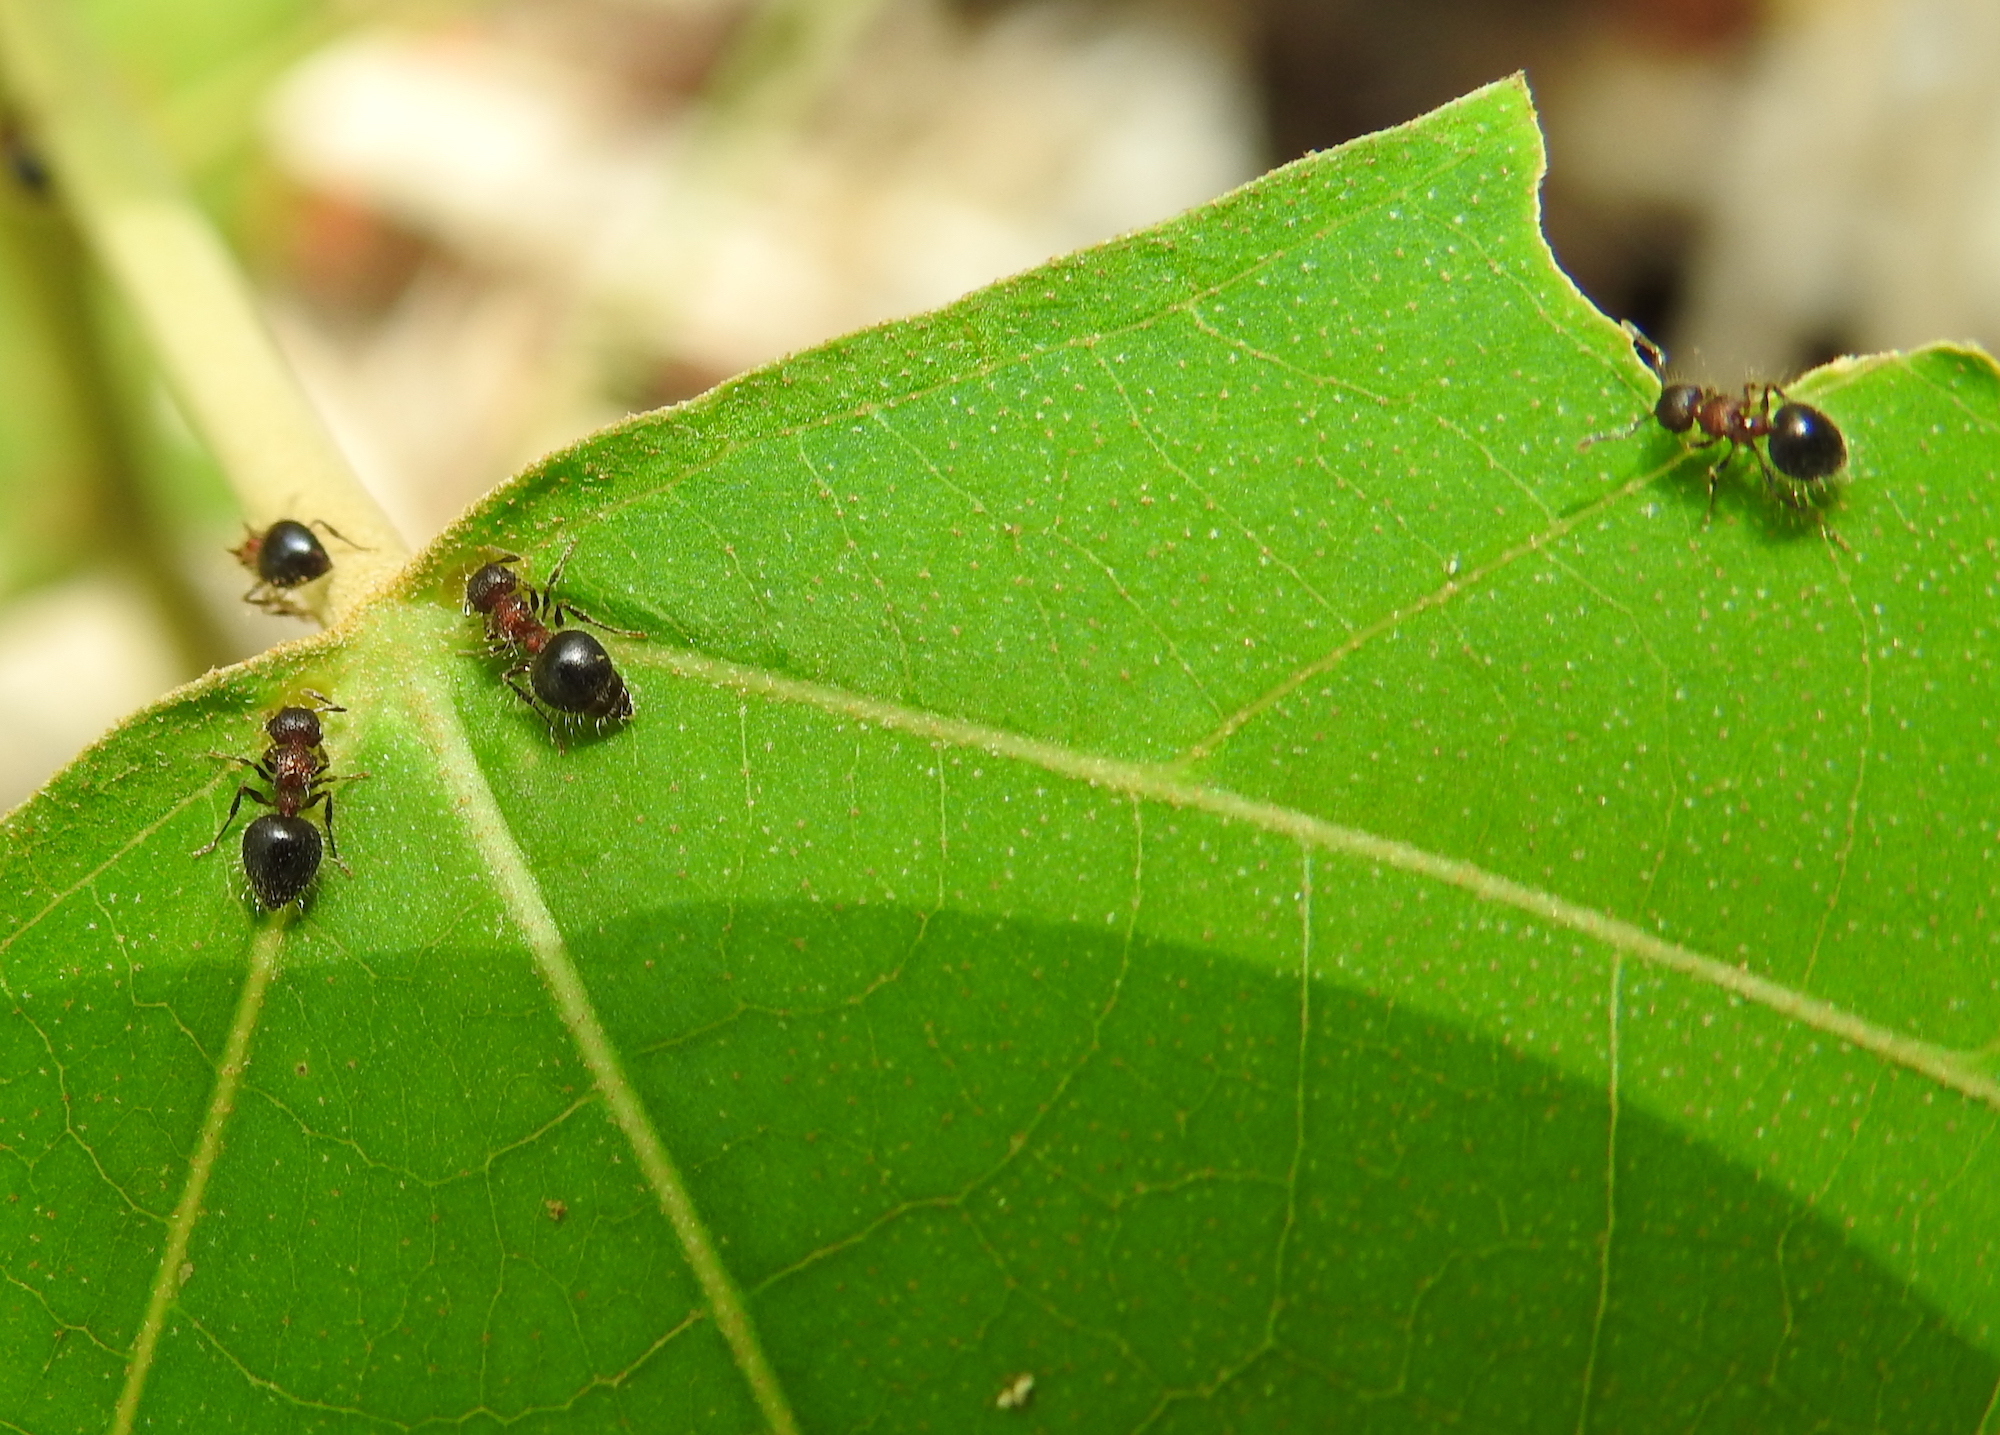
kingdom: Animalia
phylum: Arthropoda
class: Insecta
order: Hymenoptera
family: Formicidae
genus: Meranoplus
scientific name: Meranoplus bicolor
